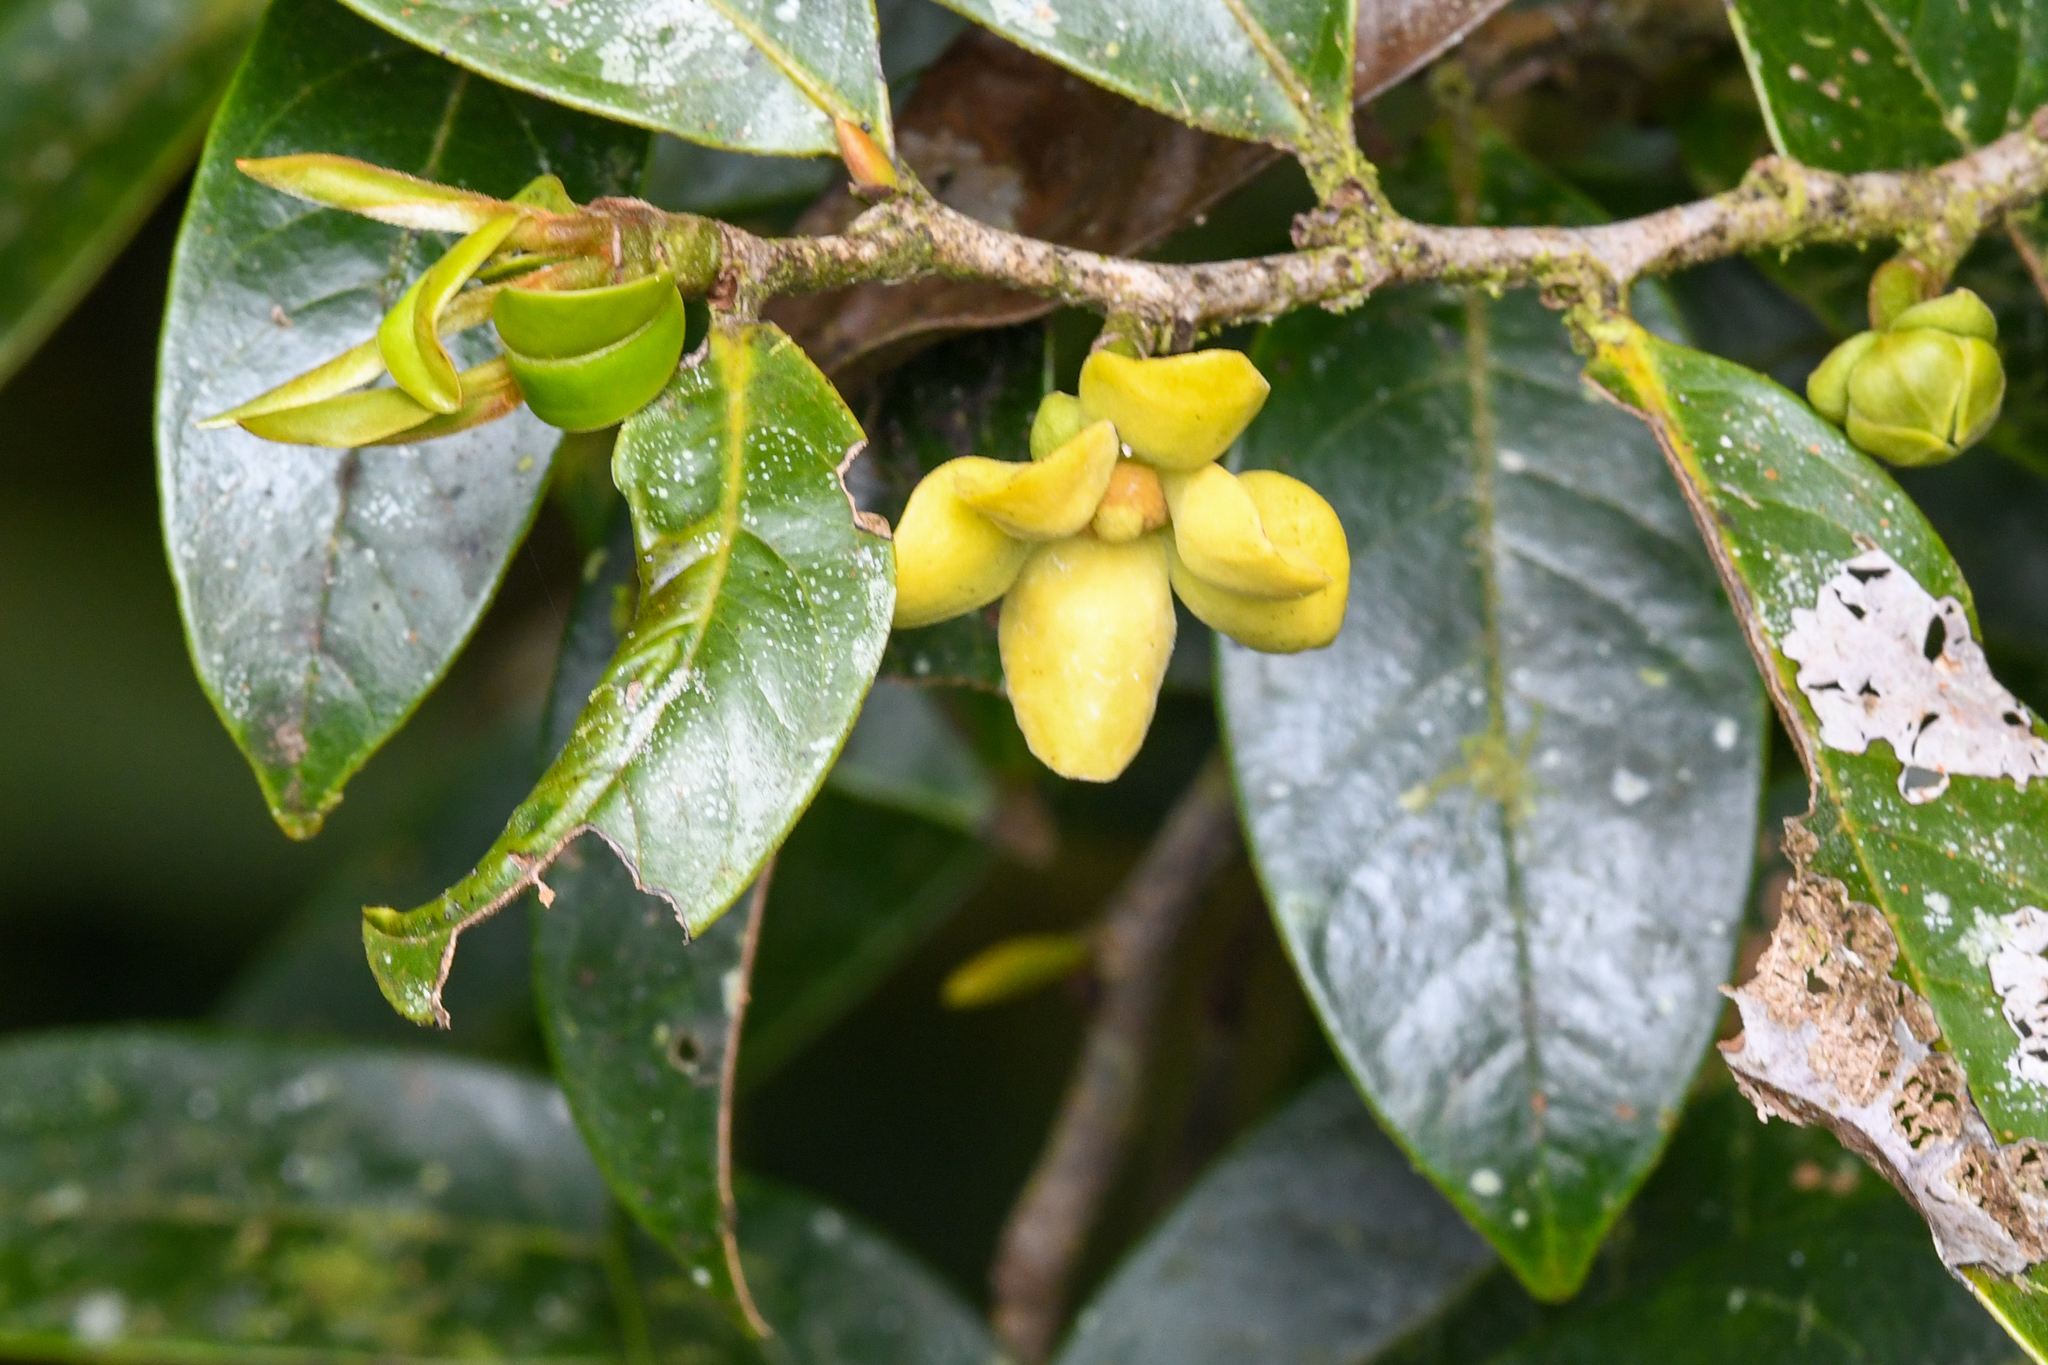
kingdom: Plantae
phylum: Tracheophyta
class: Magnoliopsida
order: Magnoliales
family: Annonaceae
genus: Guatteria
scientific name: Guatteria oliviformis
